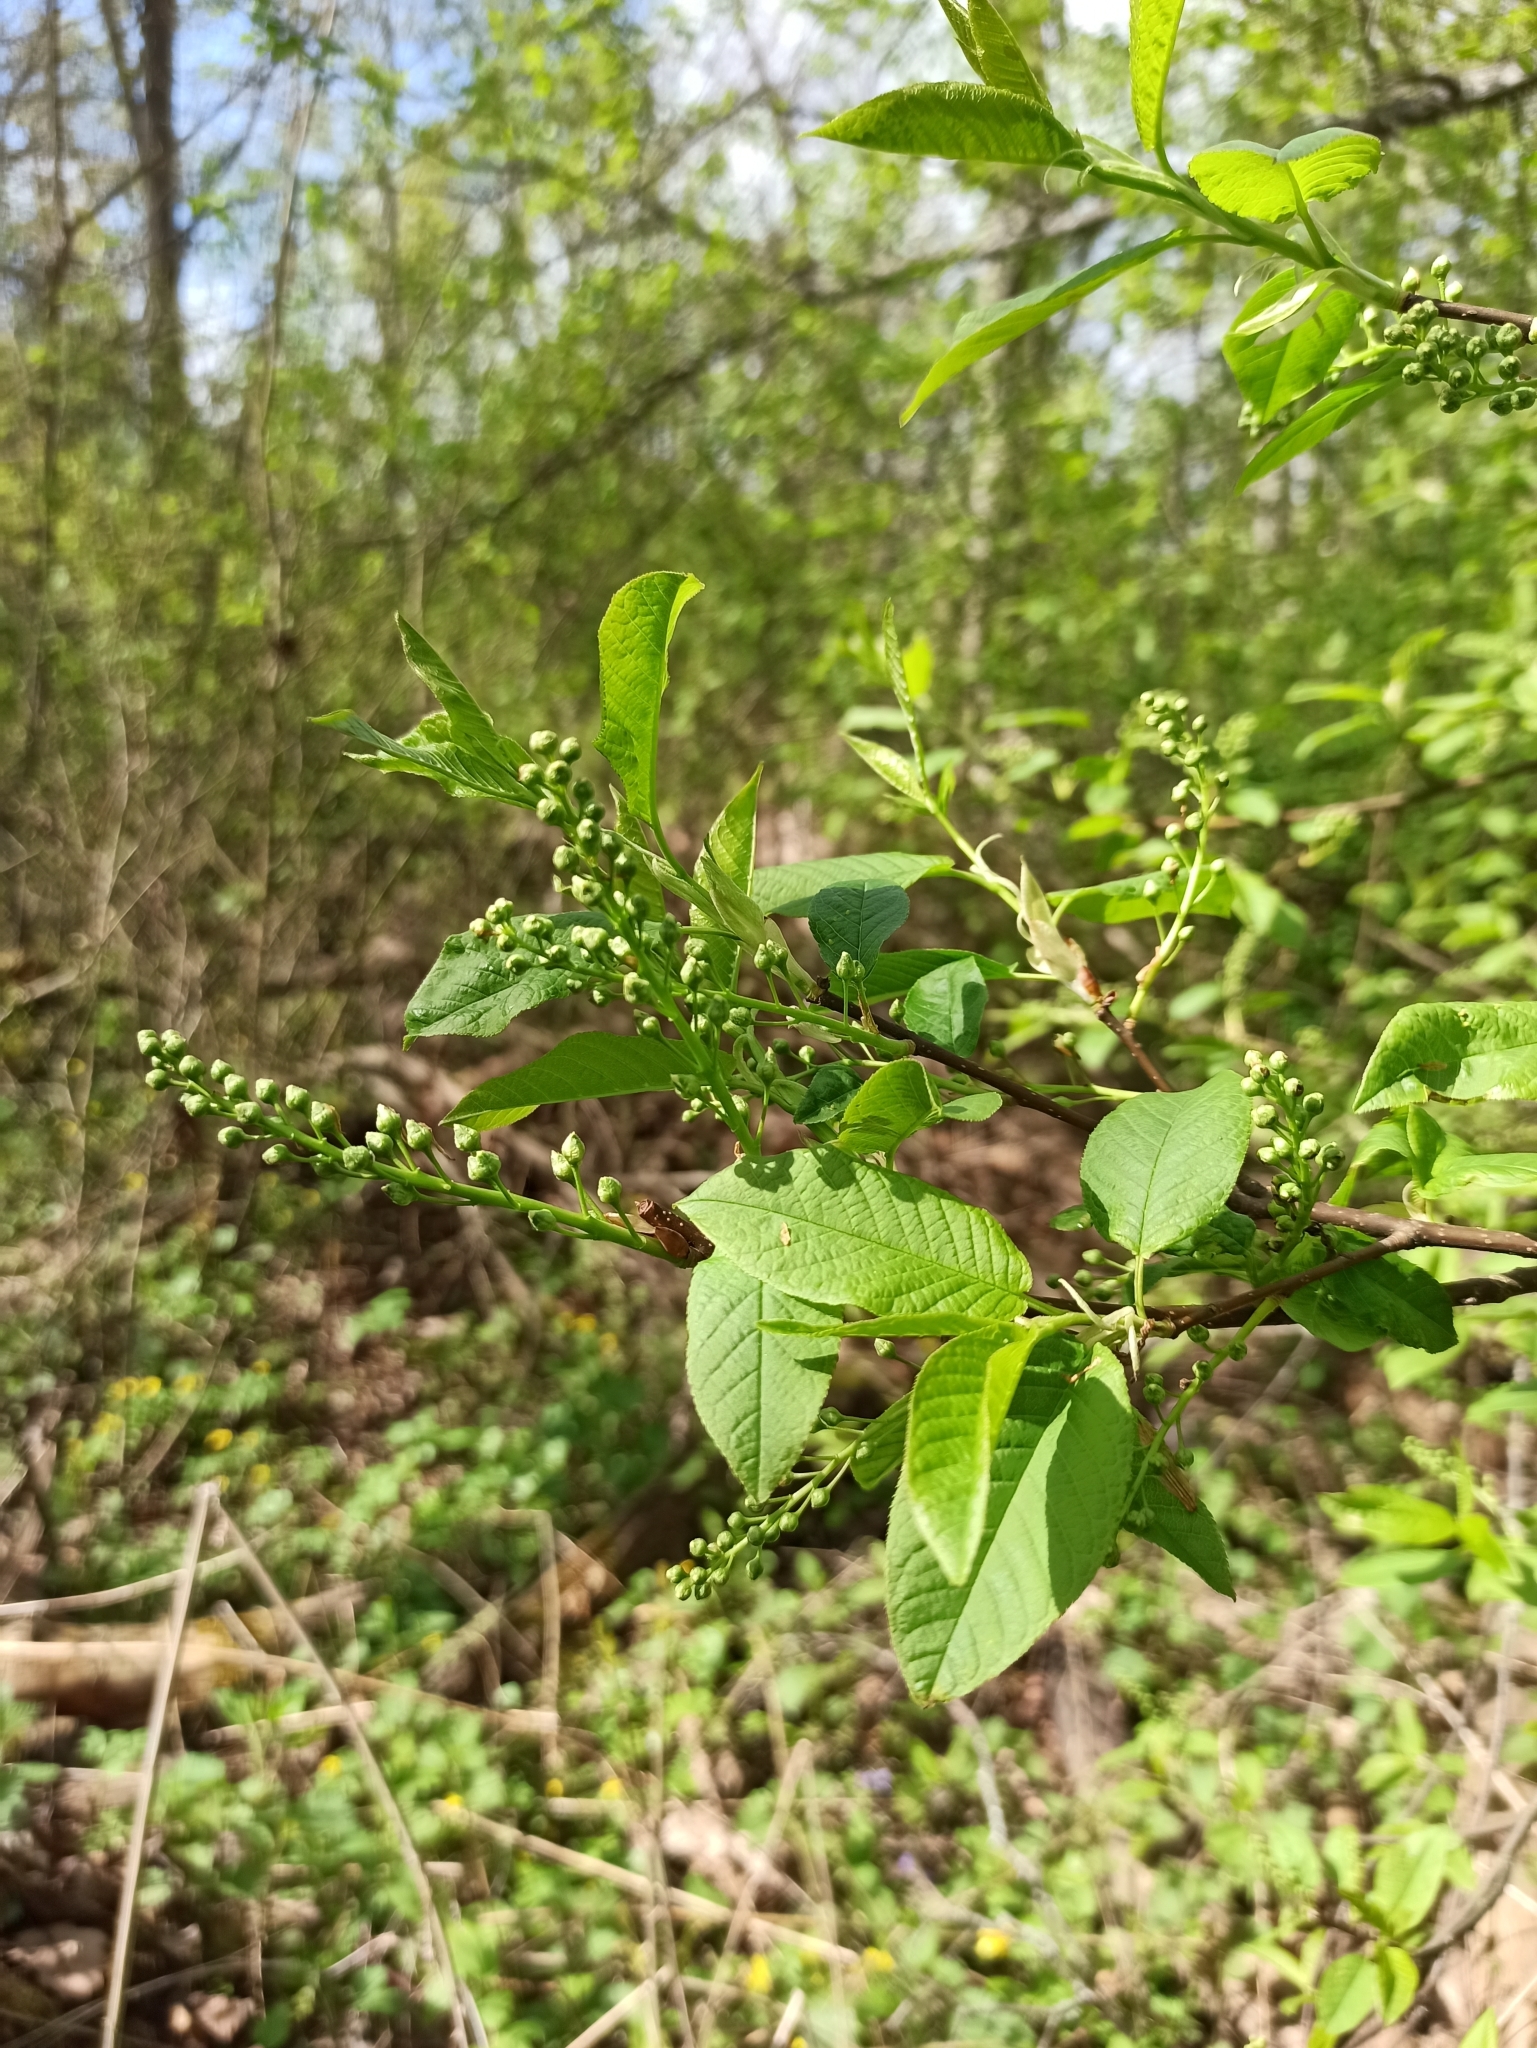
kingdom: Plantae
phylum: Tracheophyta
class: Magnoliopsida
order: Rosales
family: Rosaceae
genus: Prunus
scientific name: Prunus padus
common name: Bird cherry
